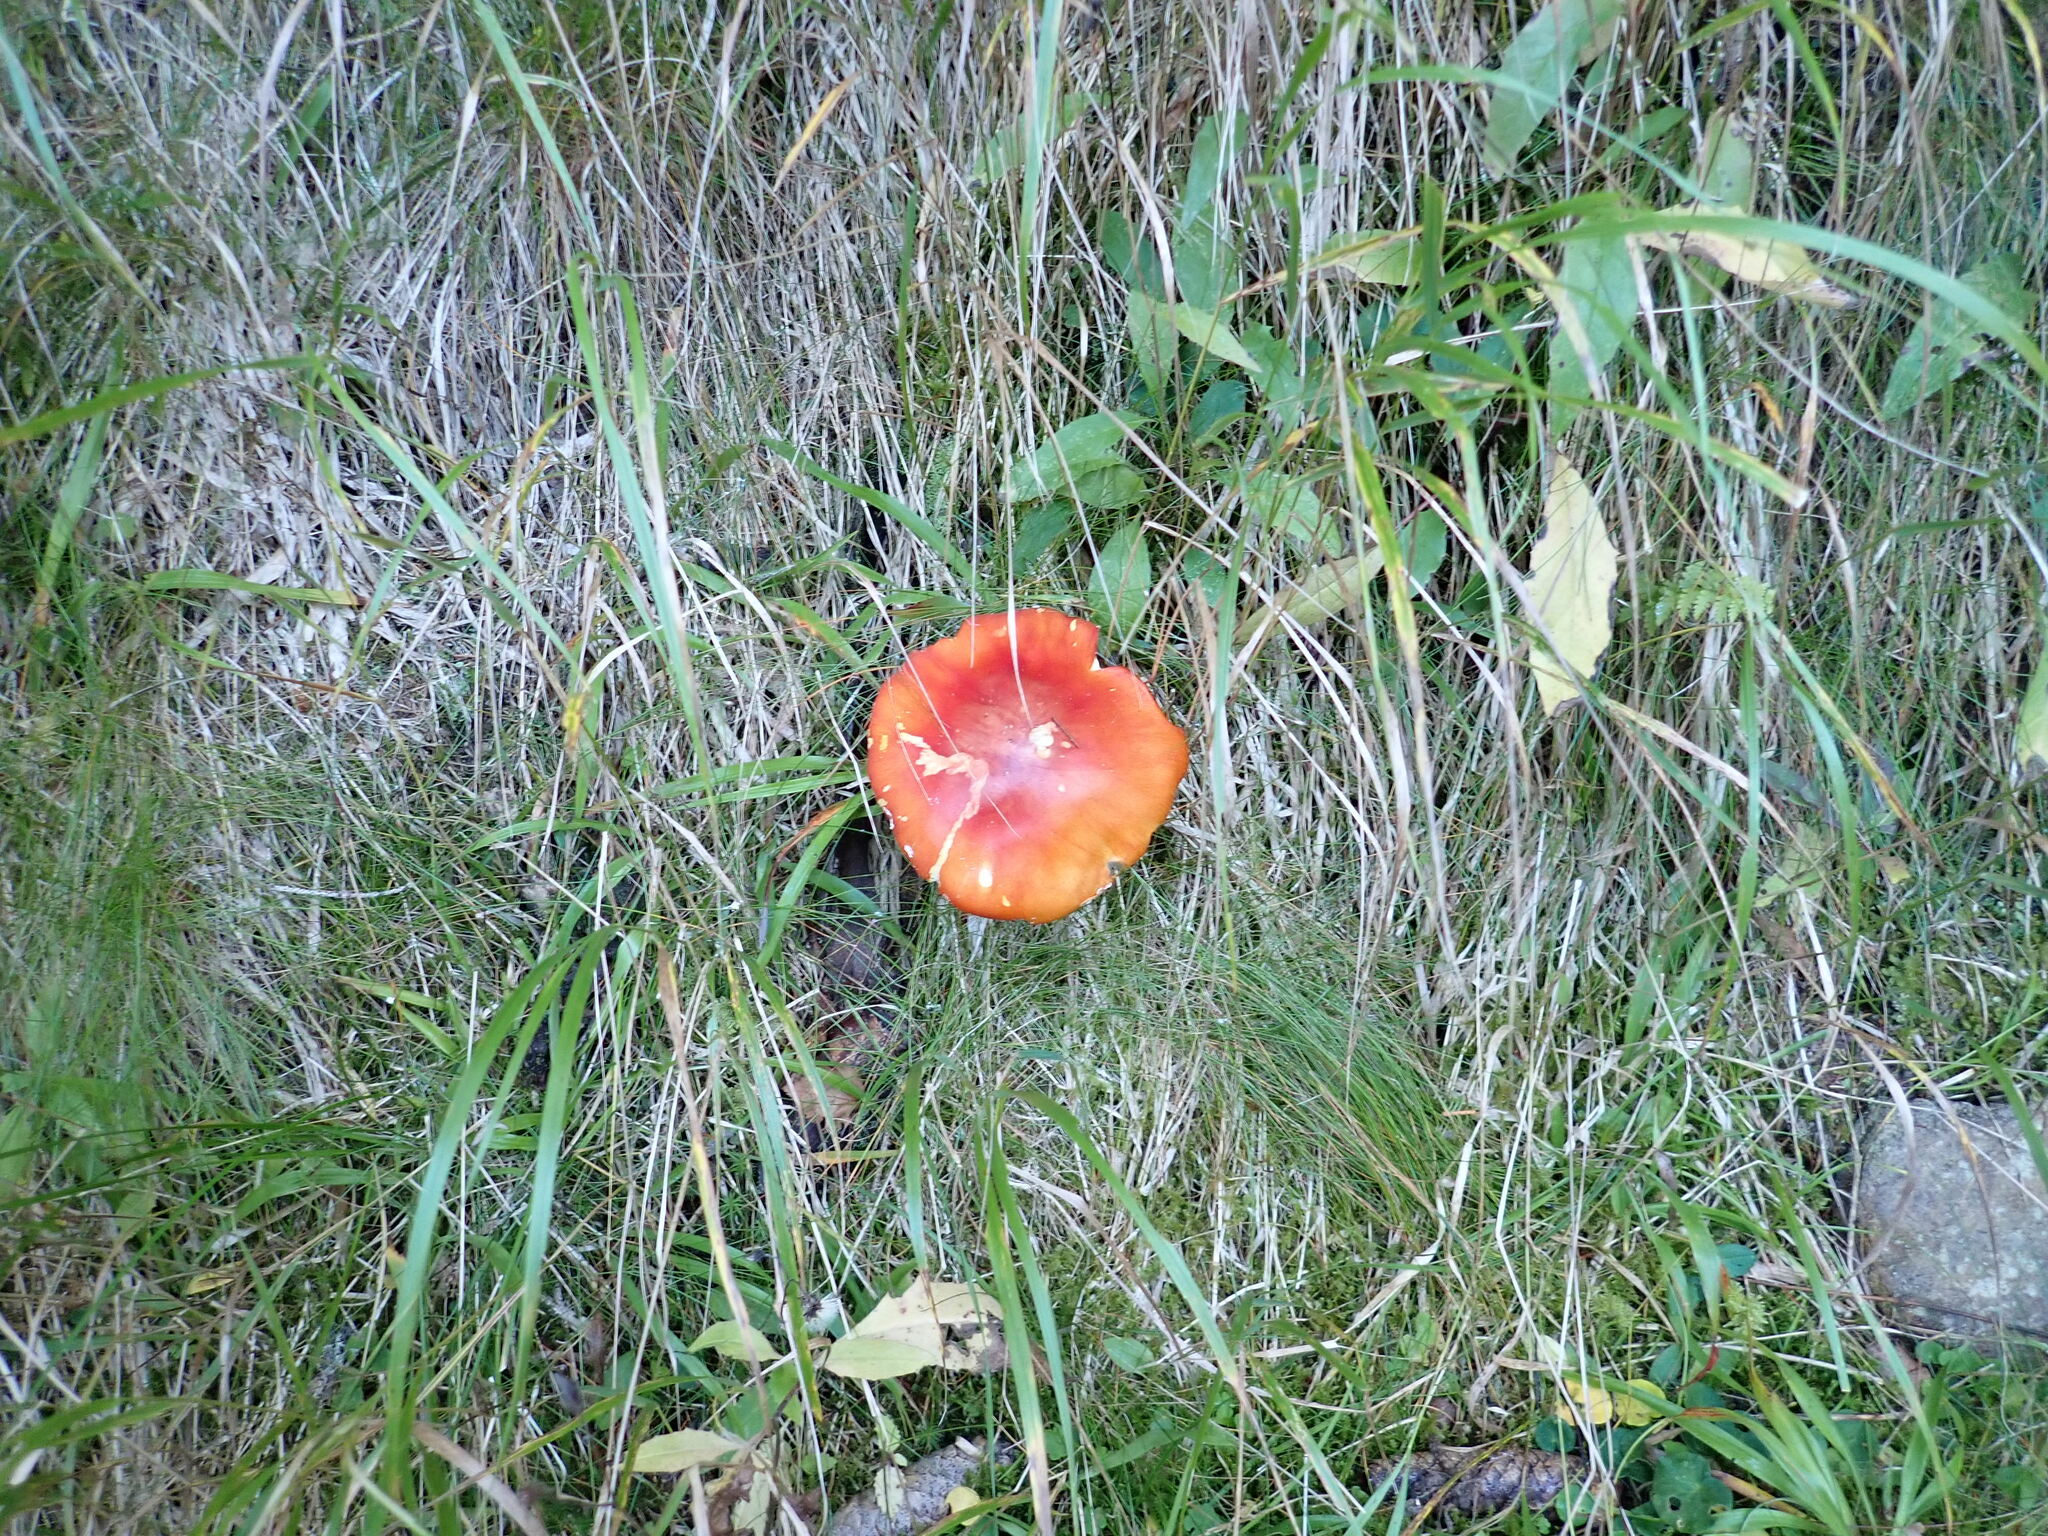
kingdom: Fungi
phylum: Basidiomycota
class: Agaricomycetes
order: Agaricales
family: Amanitaceae
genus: Amanita
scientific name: Amanita muscaria
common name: Fly agaric
